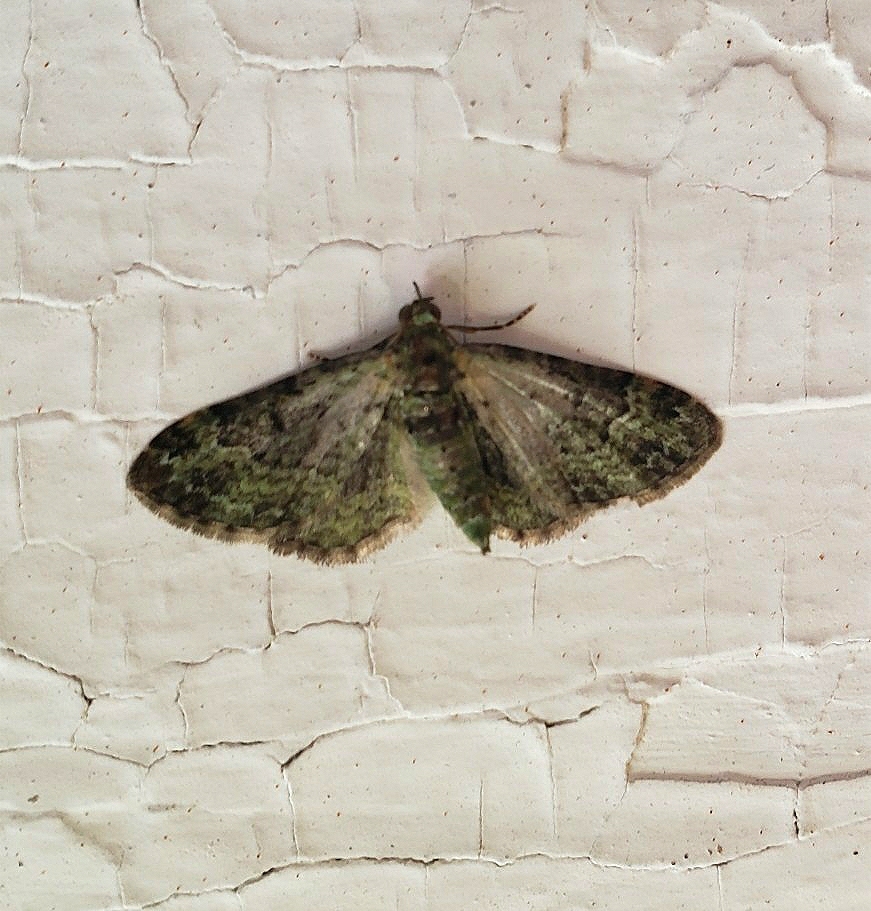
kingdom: Animalia
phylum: Arthropoda
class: Insecta
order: Lepidoptera
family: Geometridae
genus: Pasiphila
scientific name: Pasiphila rectangulata
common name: Green pug
